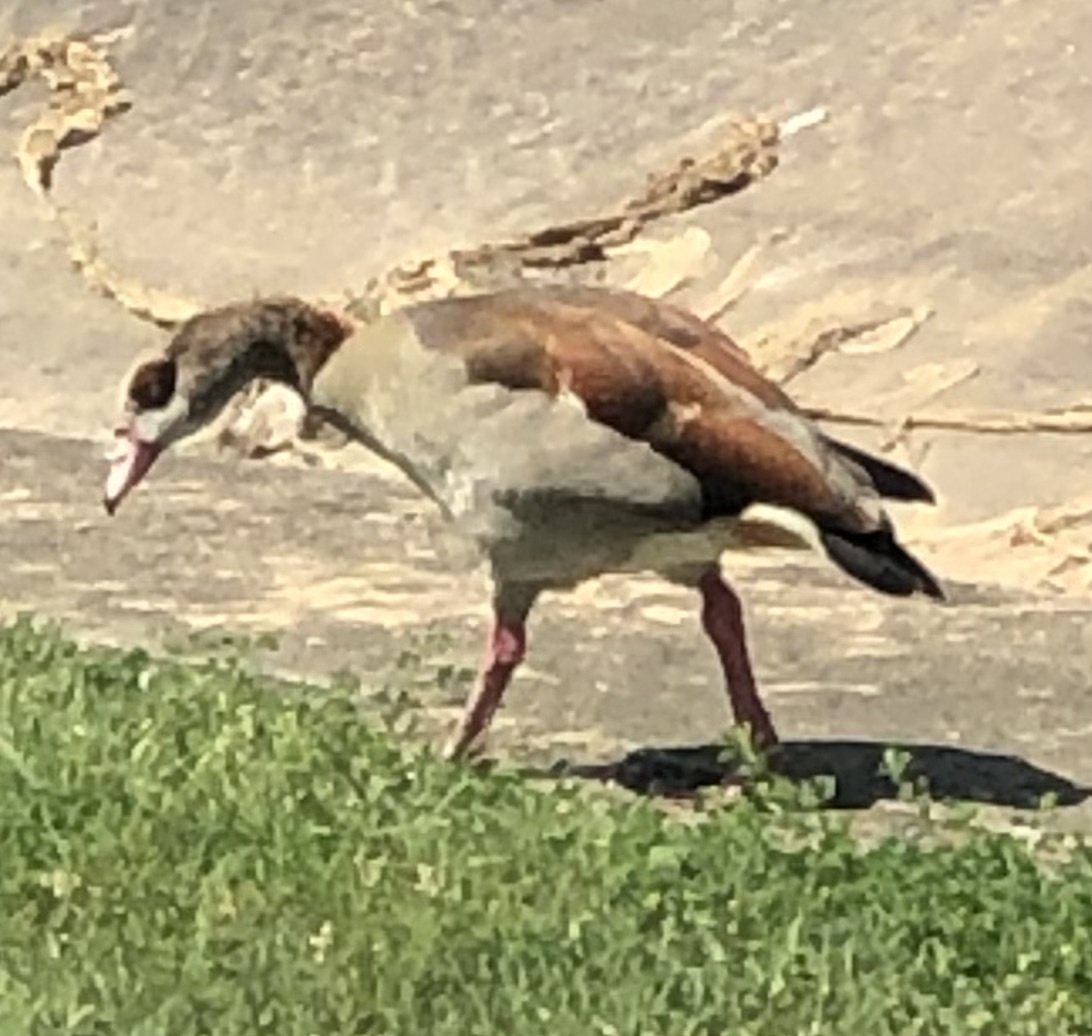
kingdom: Animalia
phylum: Chordata
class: Aves
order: Anseriformes
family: Anatidae
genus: Alopochen
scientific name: Alopochen aegyptiaca
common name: Egyptian goose
